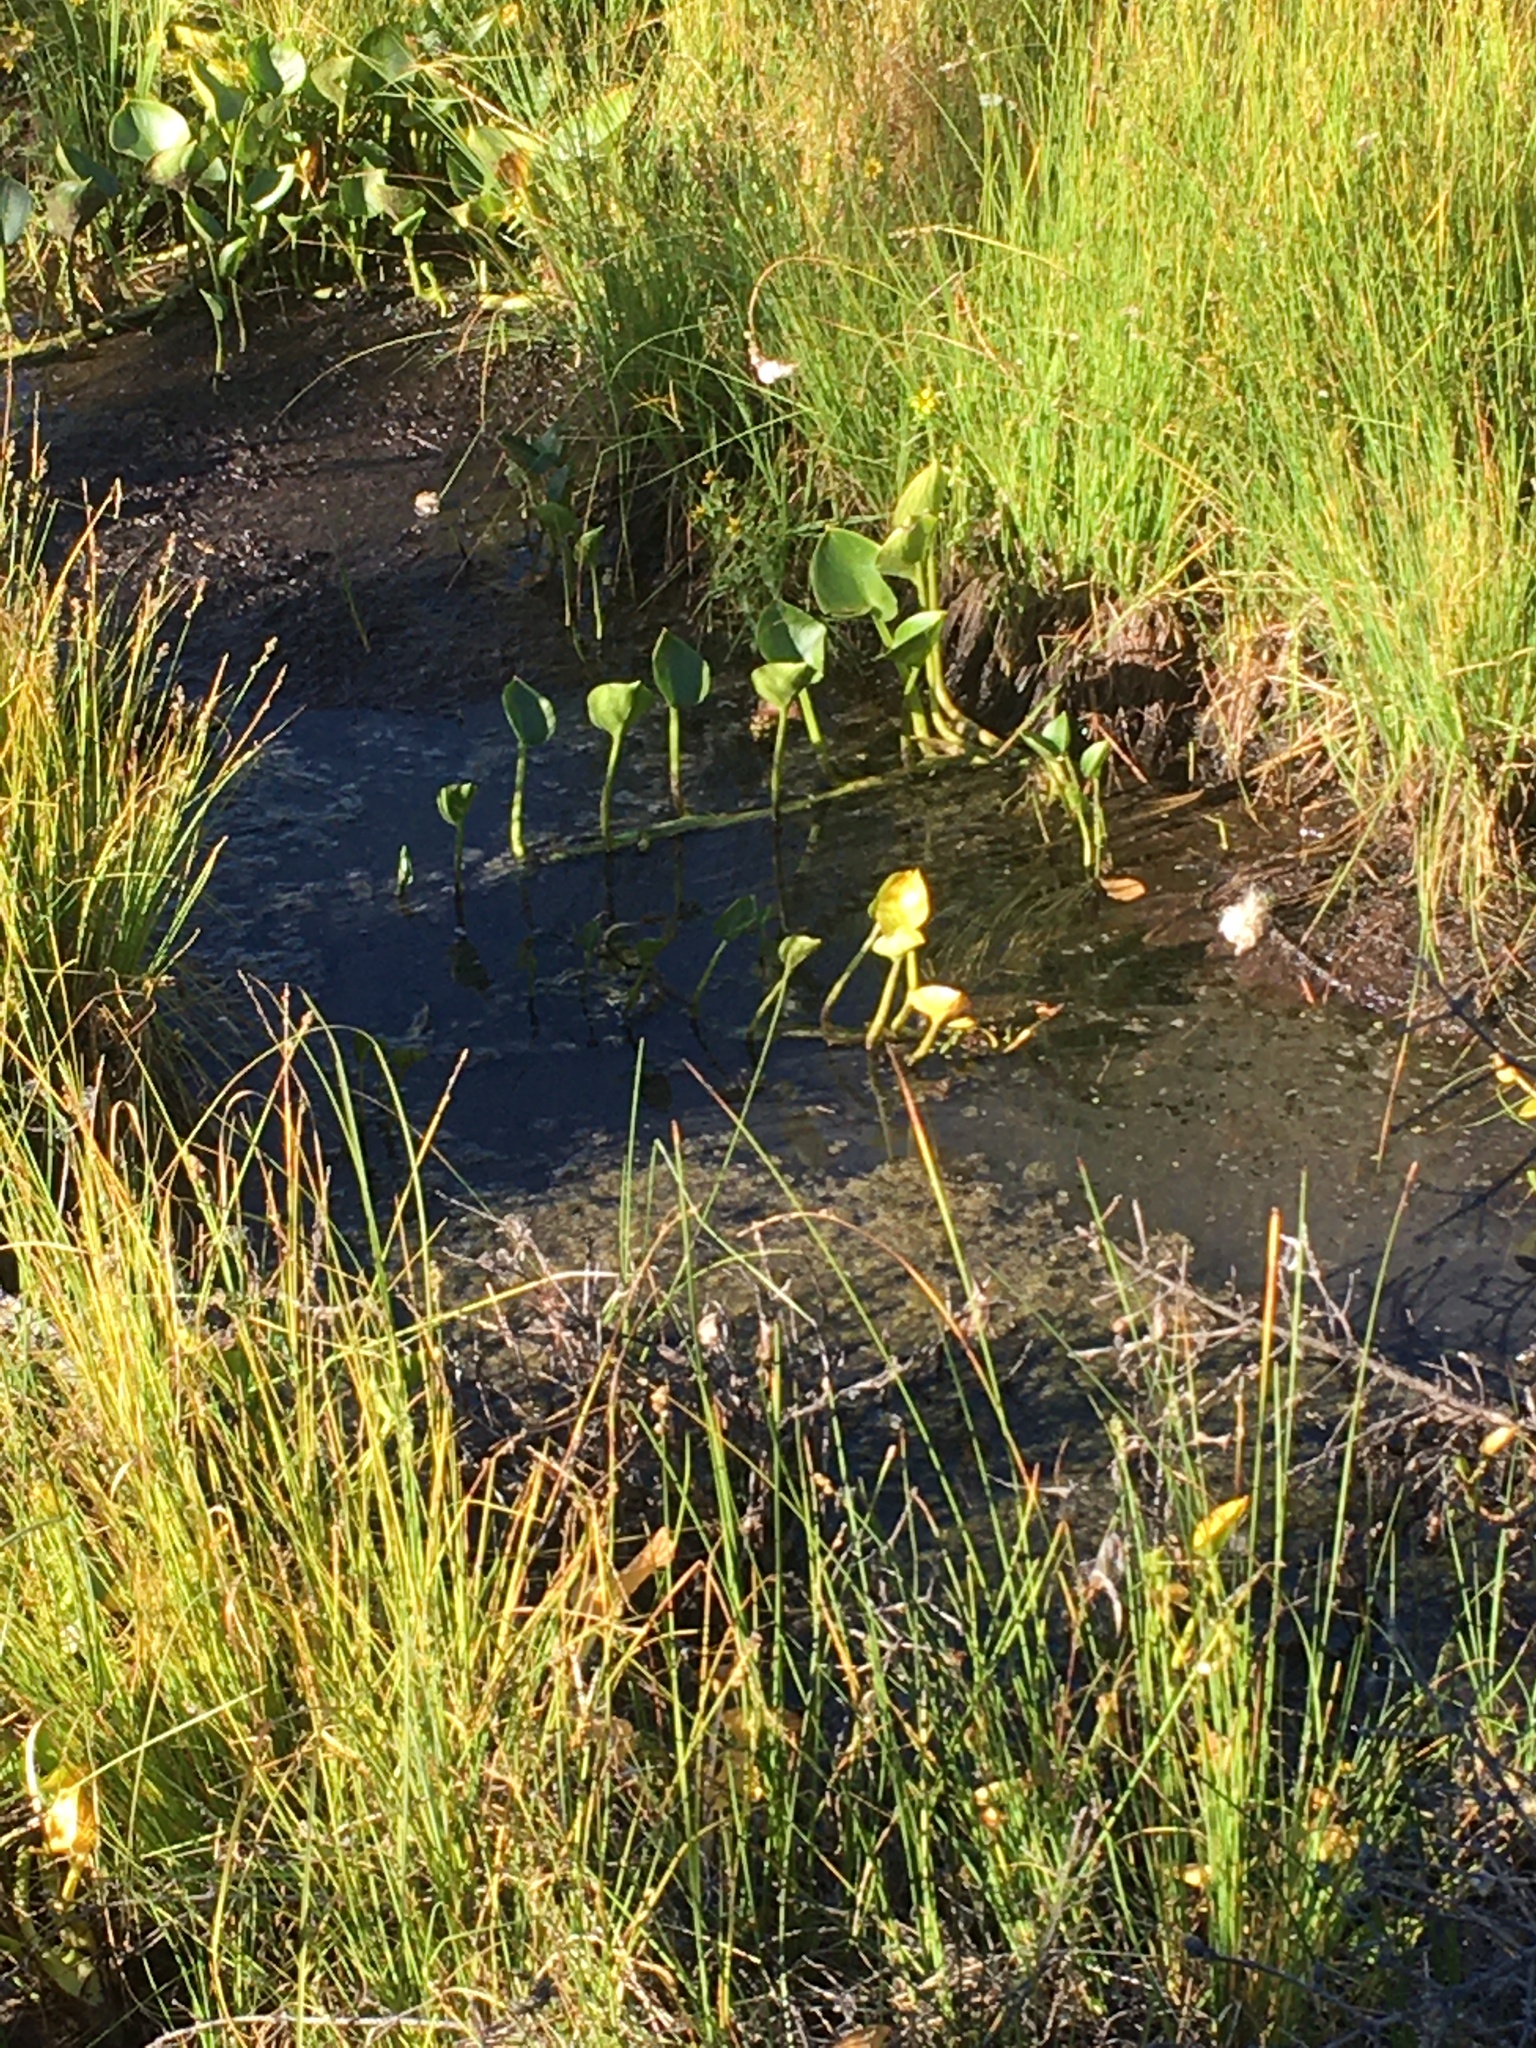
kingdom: Plantae
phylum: Tracheophyta
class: Liliopsida
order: Alismatales
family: Araceae
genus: Calla
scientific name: Calla palustris
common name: Bog arum
